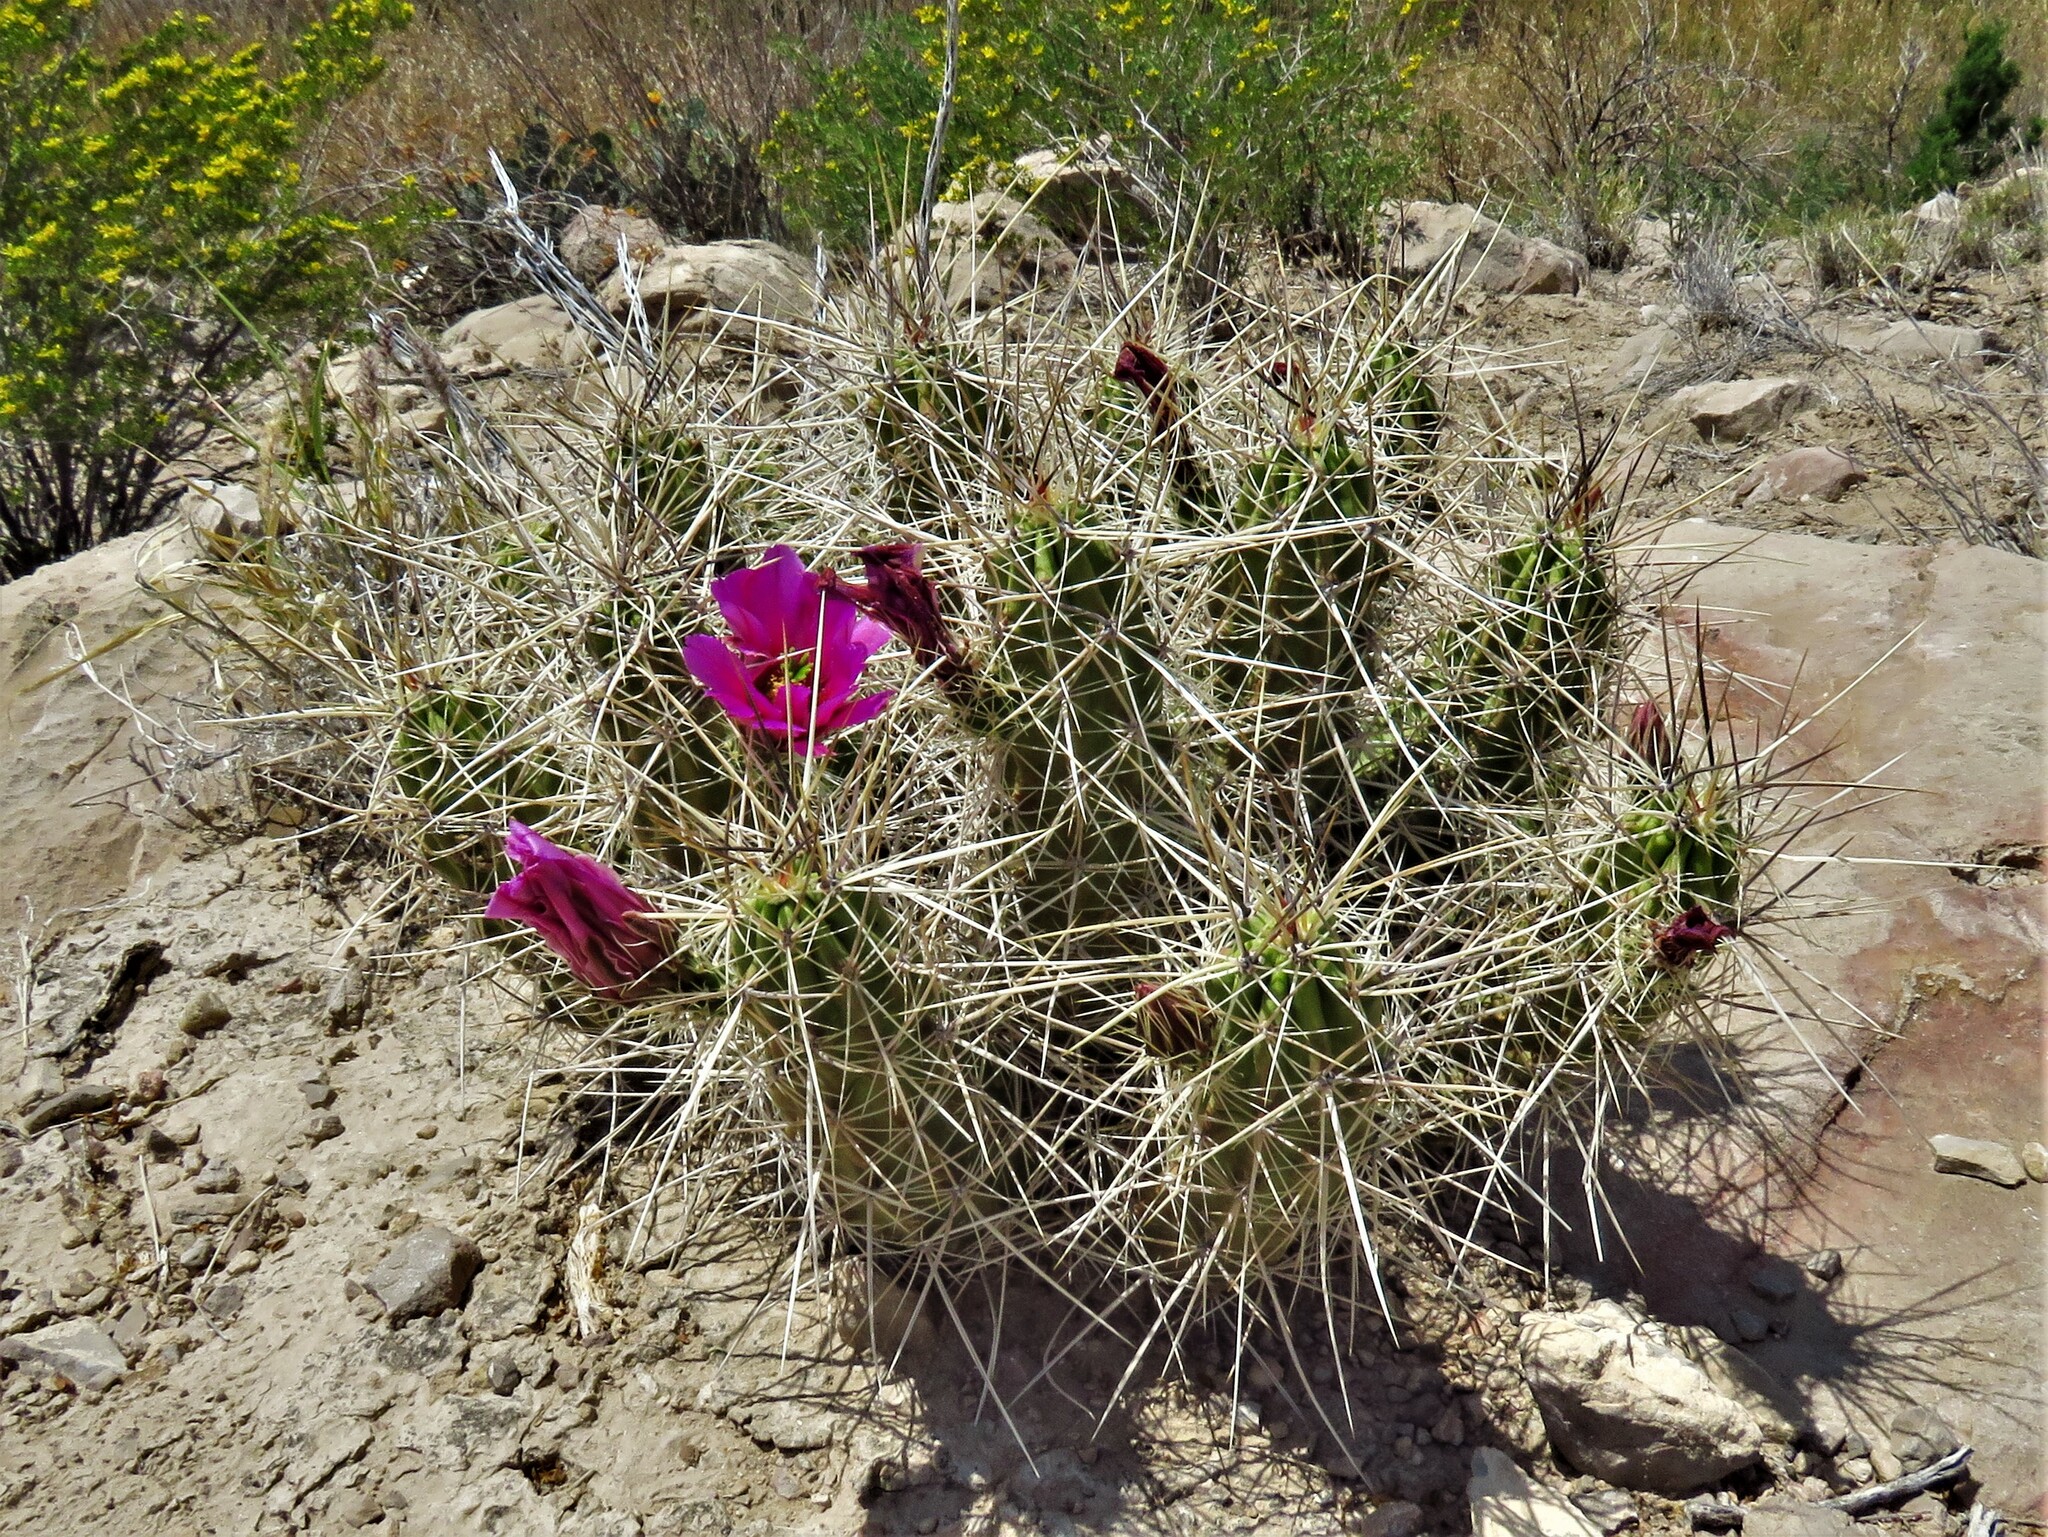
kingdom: Plantae
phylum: Tracheophyta
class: Magnoliopsida
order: Caryophyllales
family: Cactaceae
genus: Echinocereus
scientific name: Echinocereus enneacanthus
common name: Pitaya
